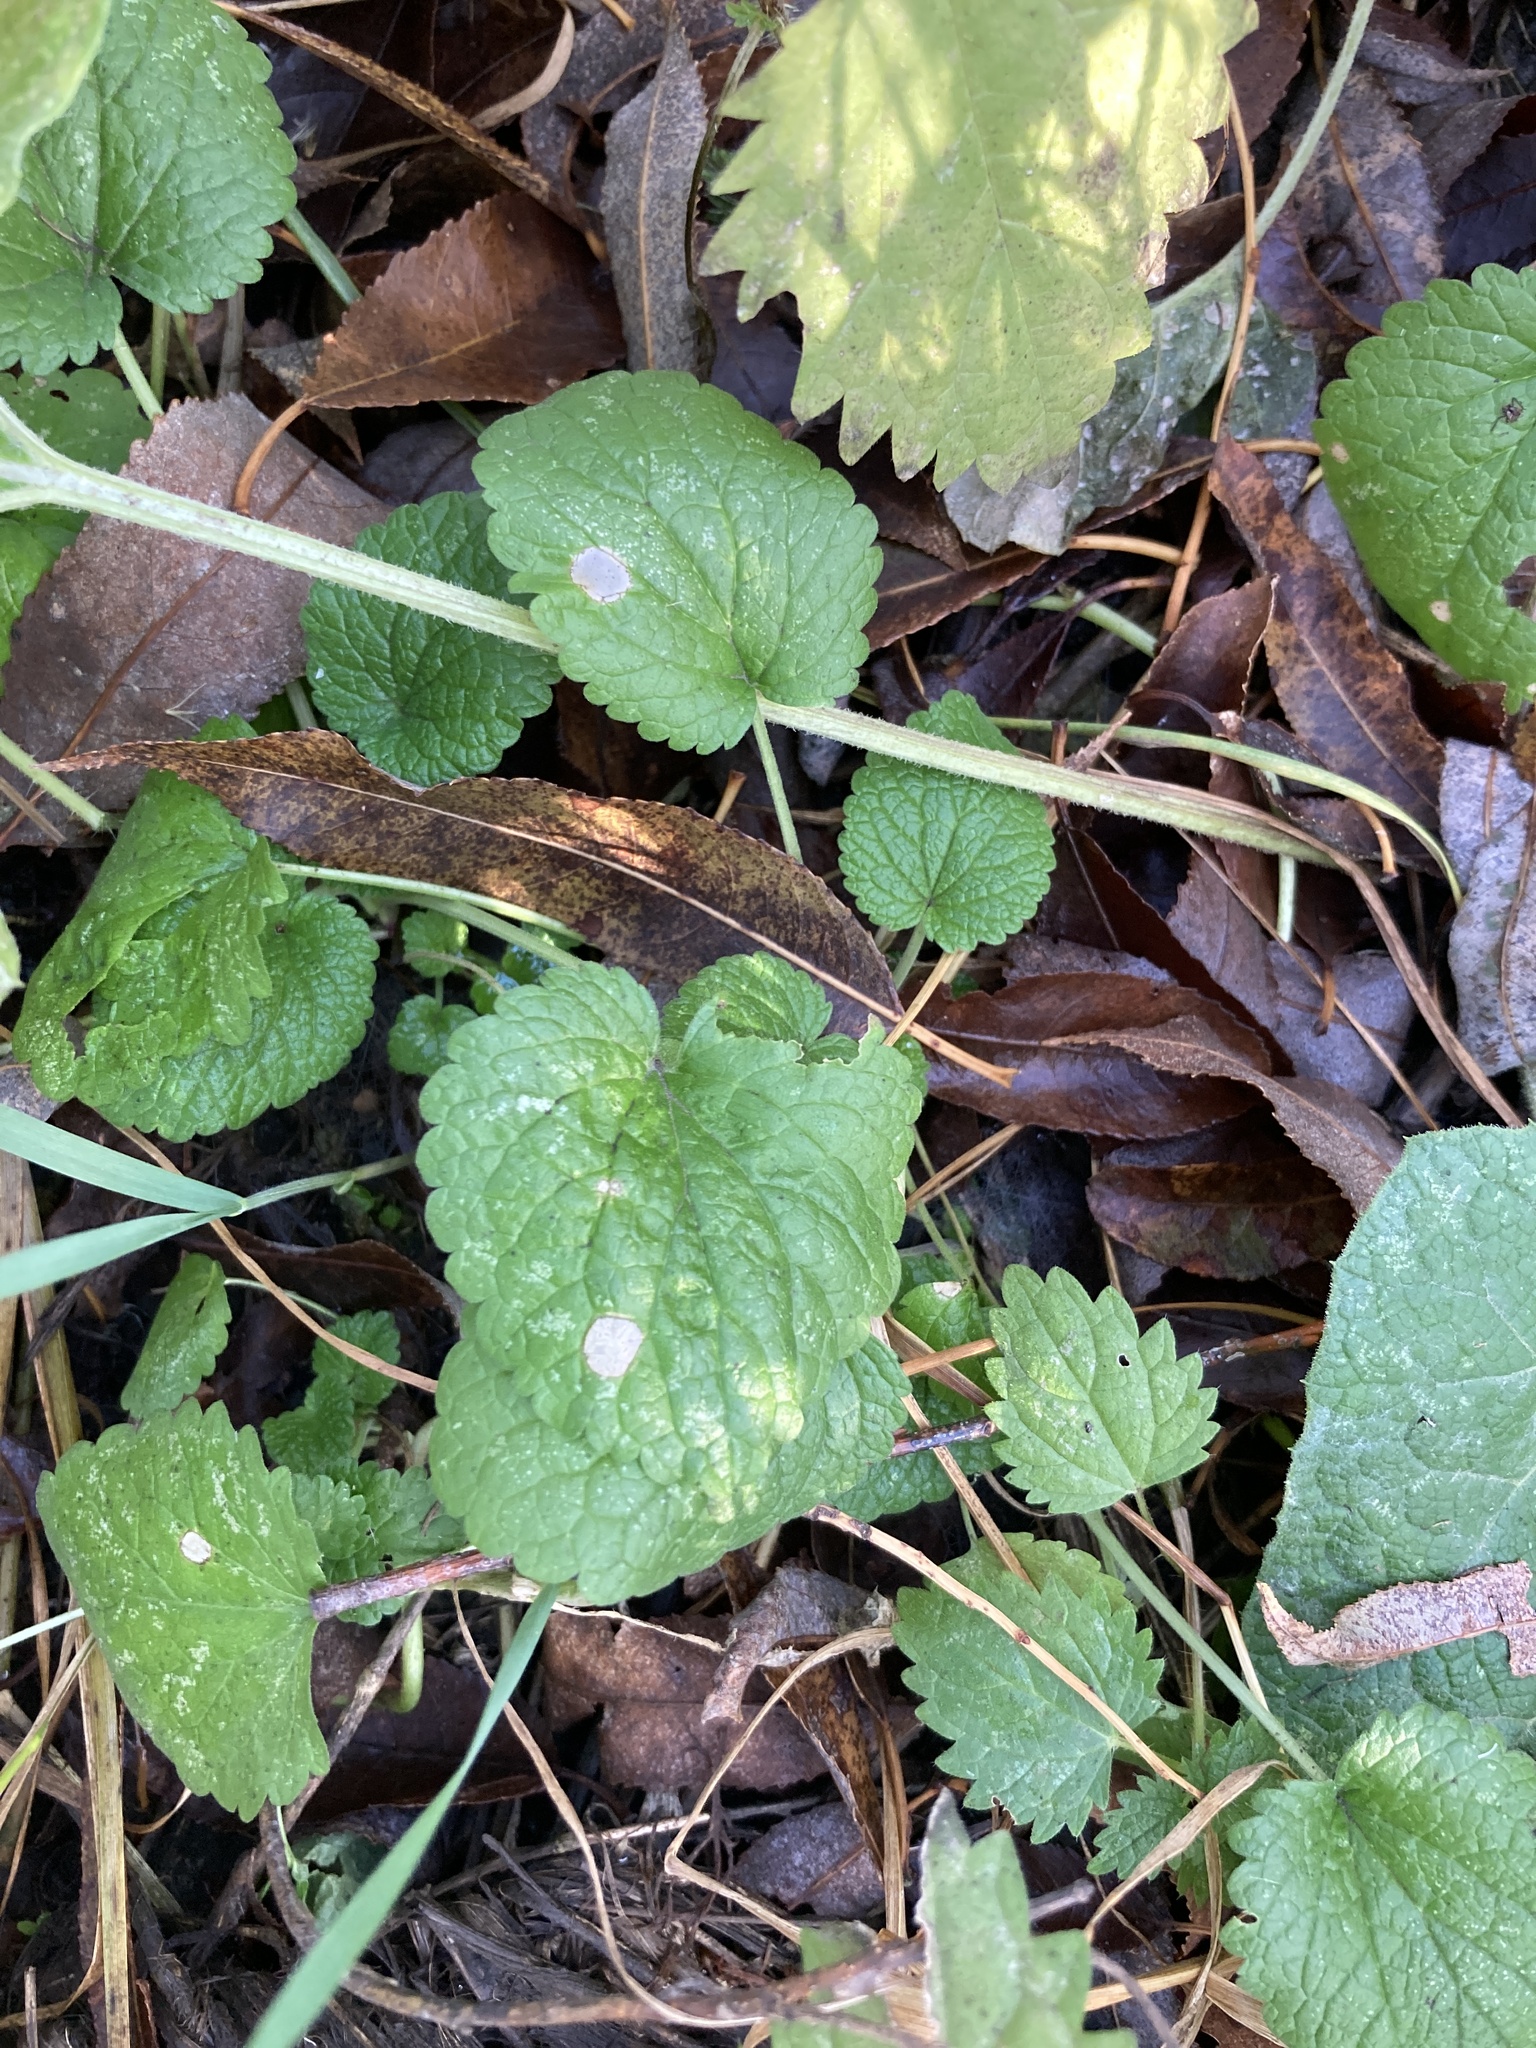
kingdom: Plantae
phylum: Tracheophyta
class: Magnoliopsida
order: Lamiales
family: Lamiaceae
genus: Stachys
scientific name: Stachys sylvatica
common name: Hedge woundwort
